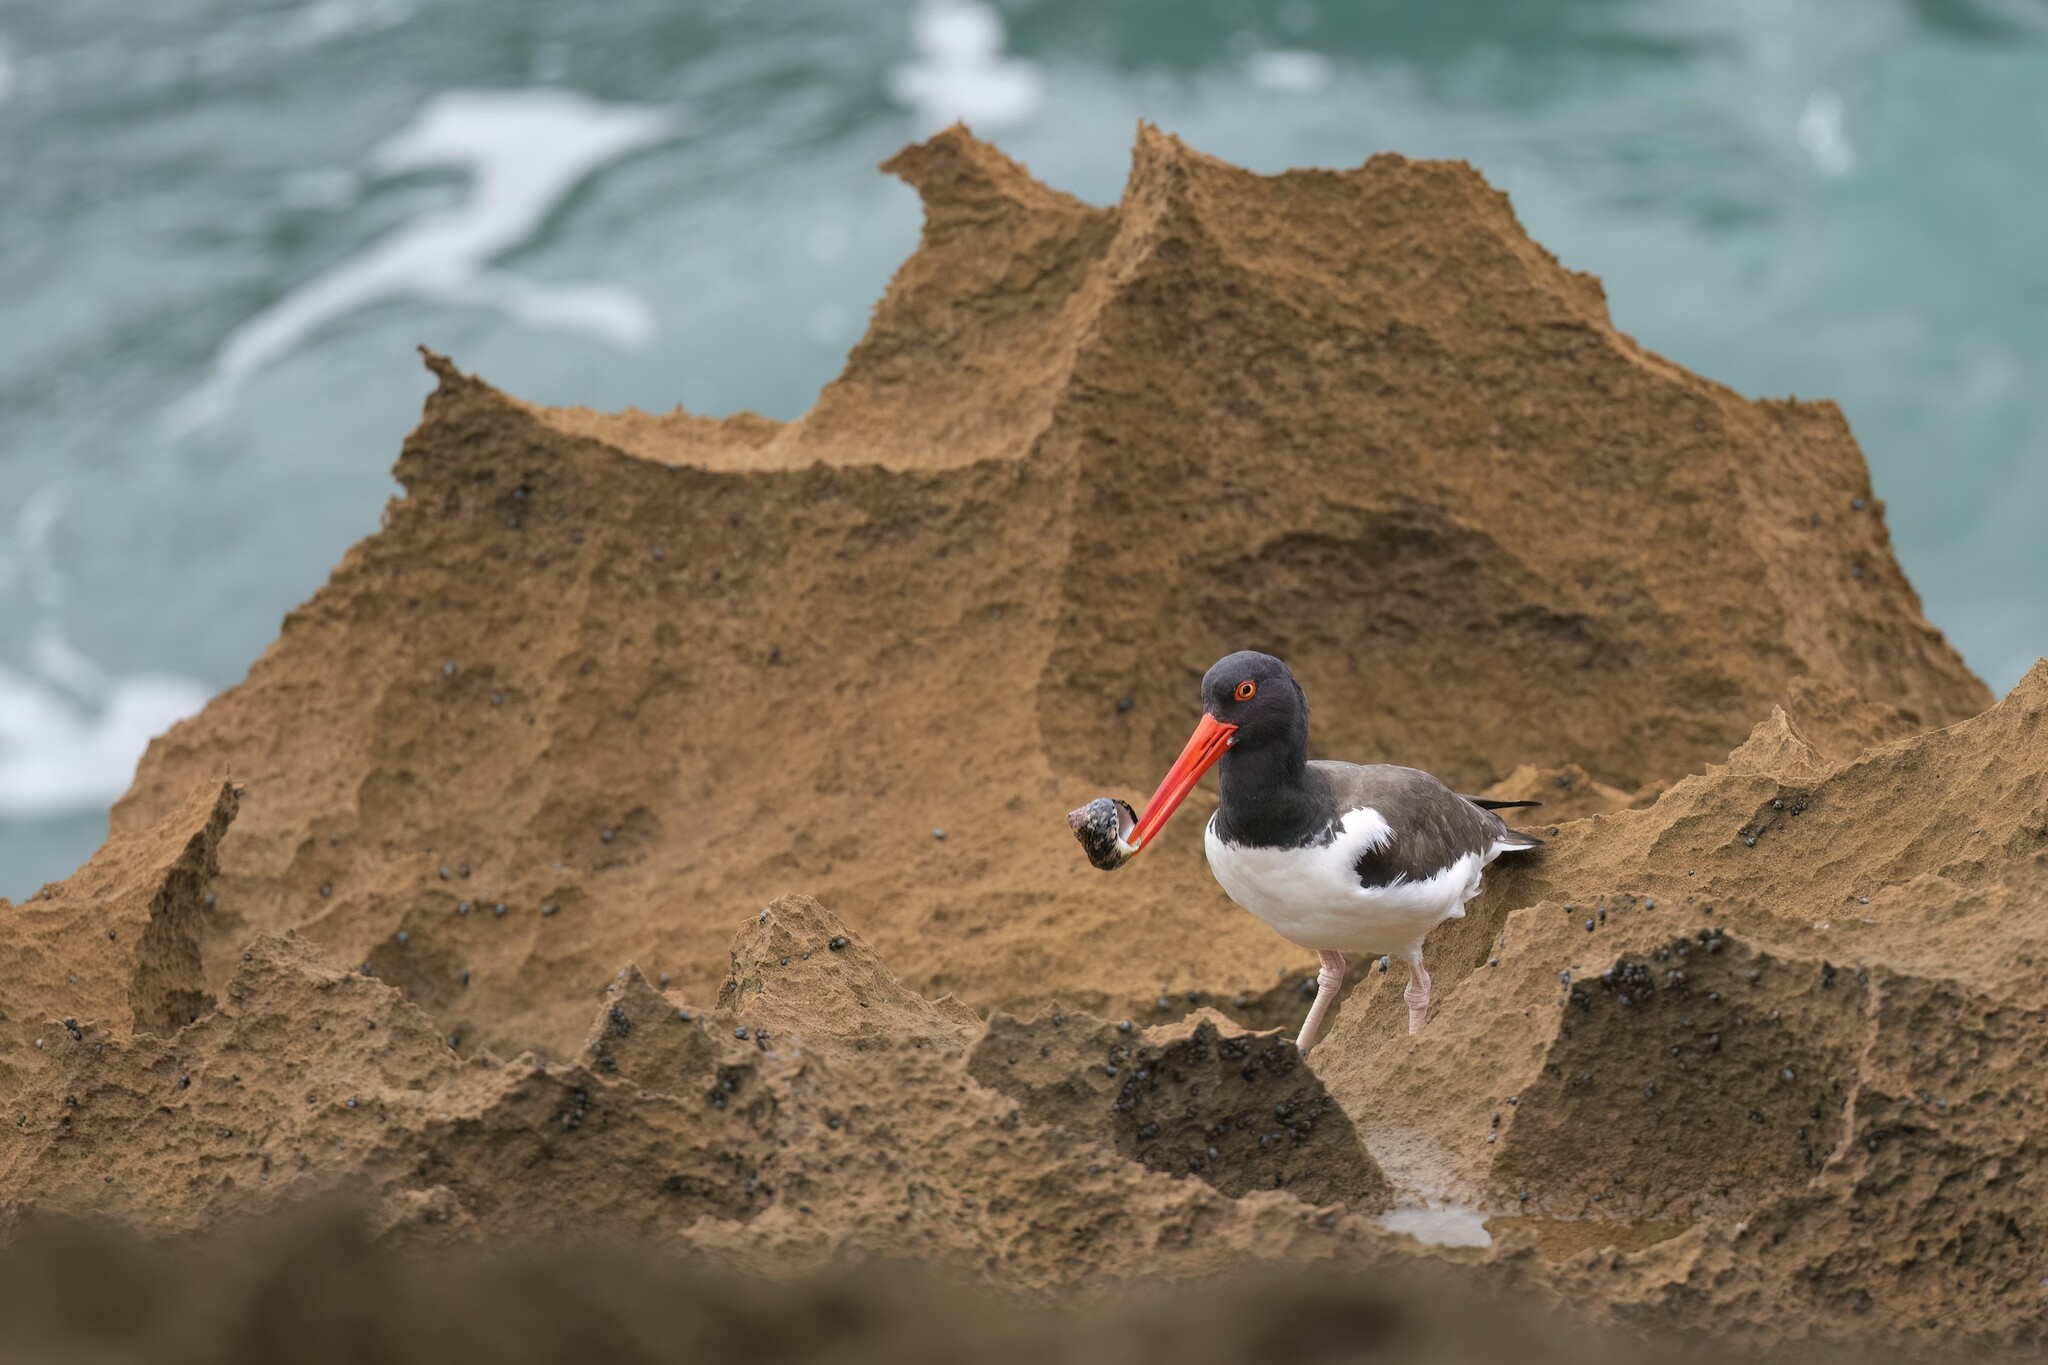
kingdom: Animalia
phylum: Chordata
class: Aves
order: Charadriiformes
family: Haematopodidae
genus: Haematopus
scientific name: Haematopus palliatus
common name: American oystercatcher
